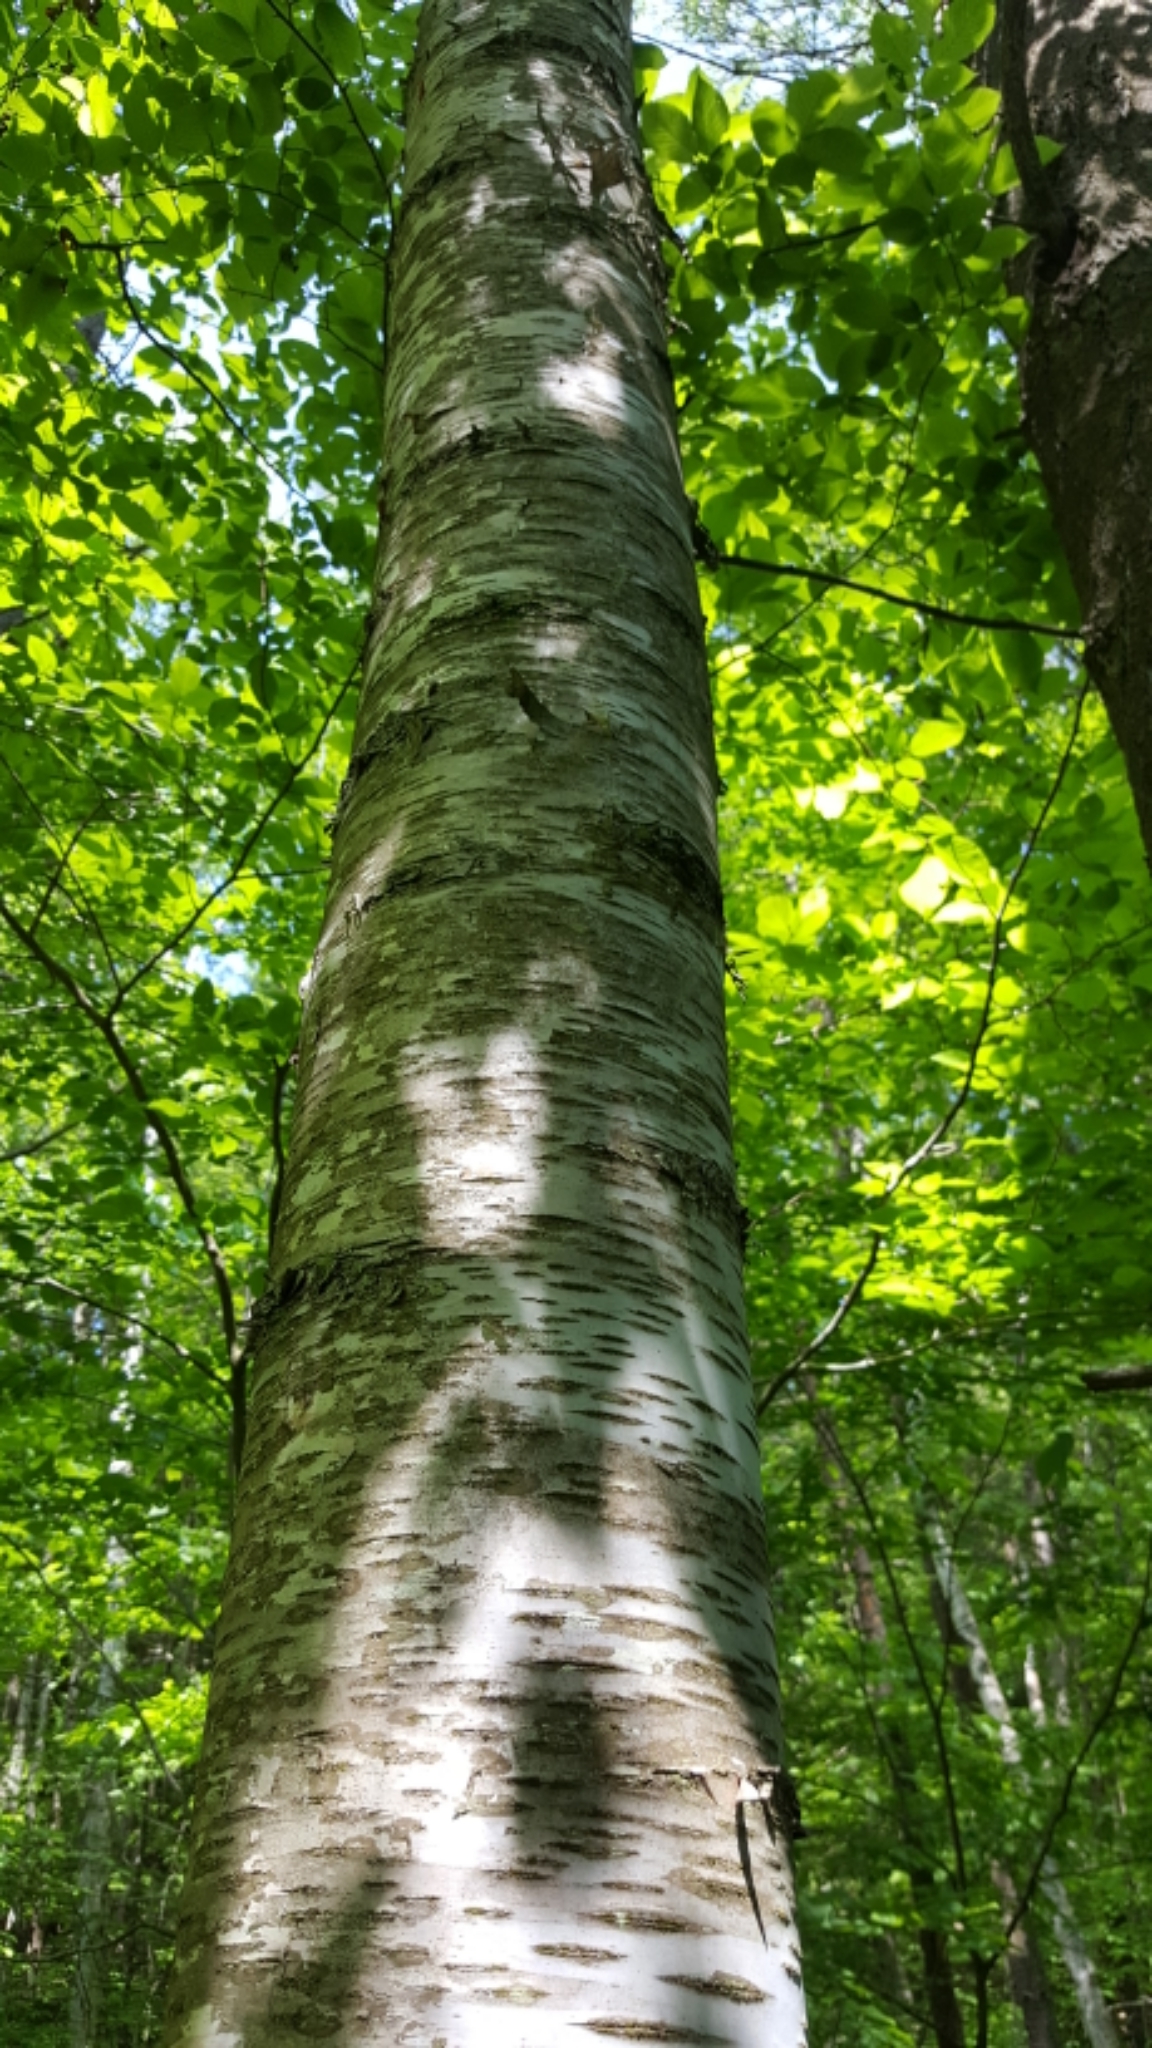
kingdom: Plantae
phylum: Tracheophyta
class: Magnoliopsida
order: Fagales
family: Betulaceae
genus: Betula
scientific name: Betula papyrifera
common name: Paper birch
